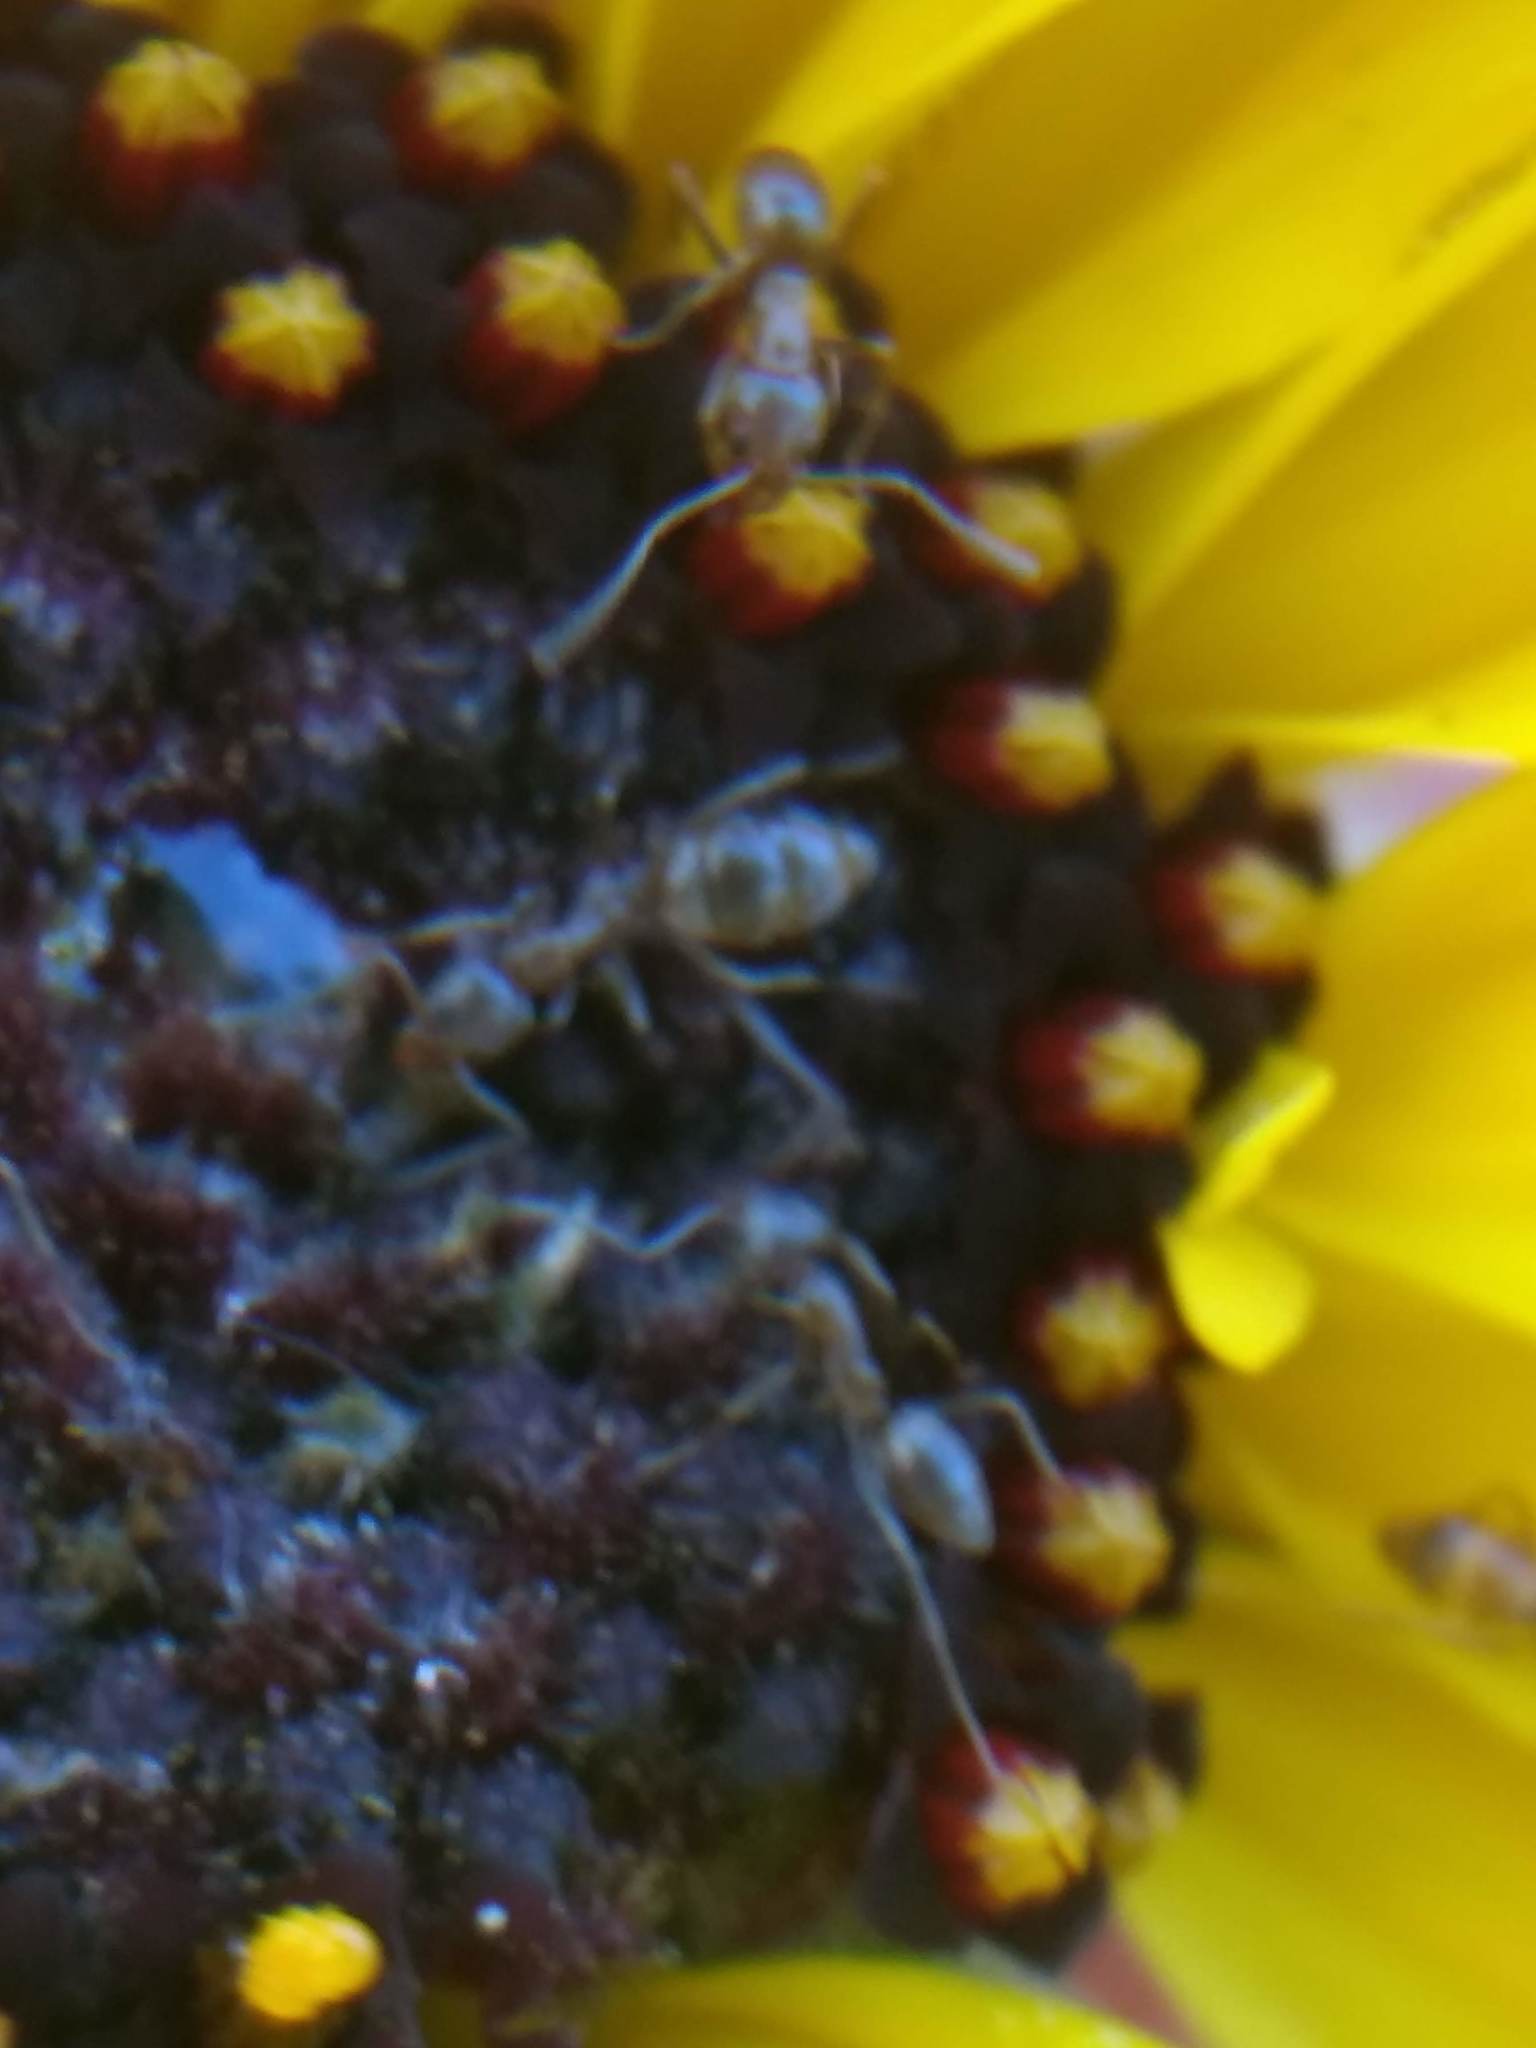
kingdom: Animalia
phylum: Arthropoda
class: Insecta
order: Hymenoptera
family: Formicidae
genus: Linepithema
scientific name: Linepithema humile
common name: Argentine ant
